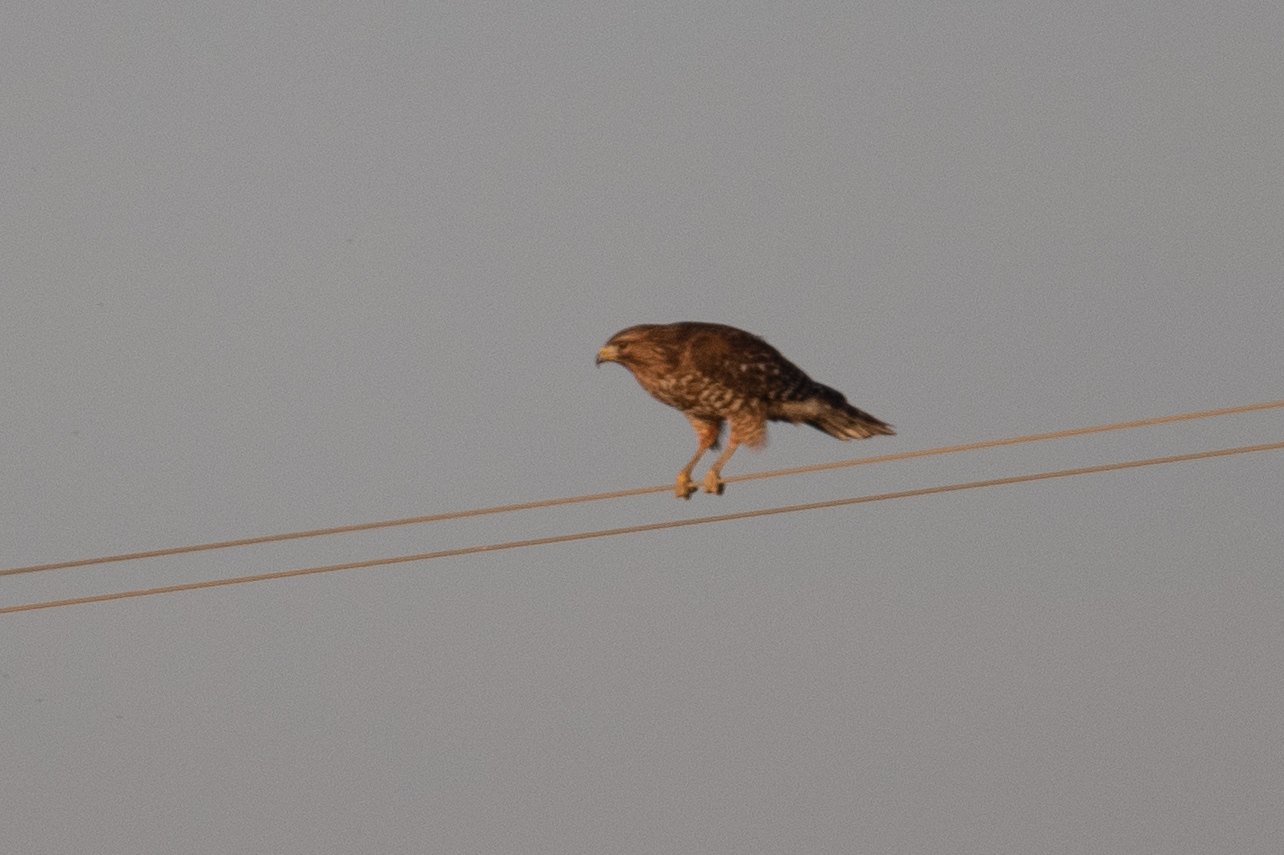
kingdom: Animalia
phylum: Chordata
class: Aves
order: Accipitriformes
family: Accipitridae
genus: Buteo
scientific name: Buteo lineatus
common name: Red-shouldered hawk
